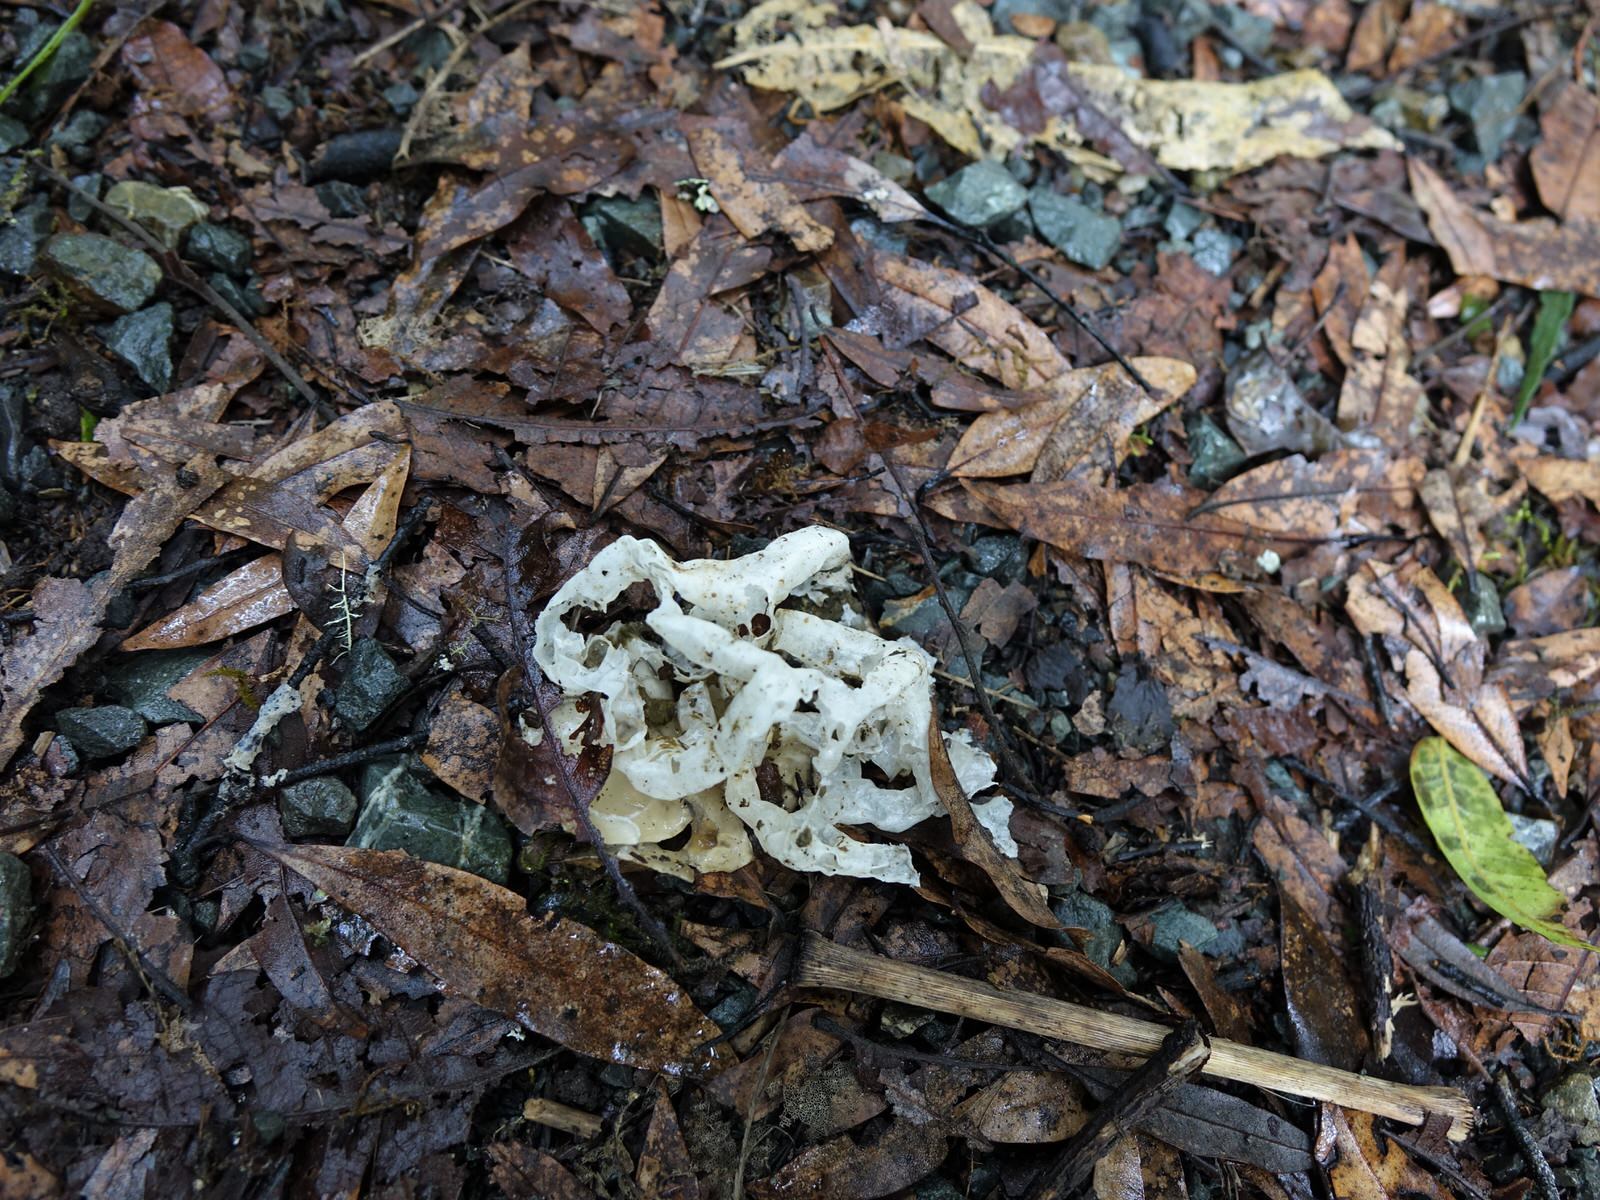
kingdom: Fungi
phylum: Basidiomycota
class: Agaricomycetes
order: Phallales
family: Phallaceae
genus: Ileodictyon
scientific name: Ileodictyon cibarium
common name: Basket fungus
